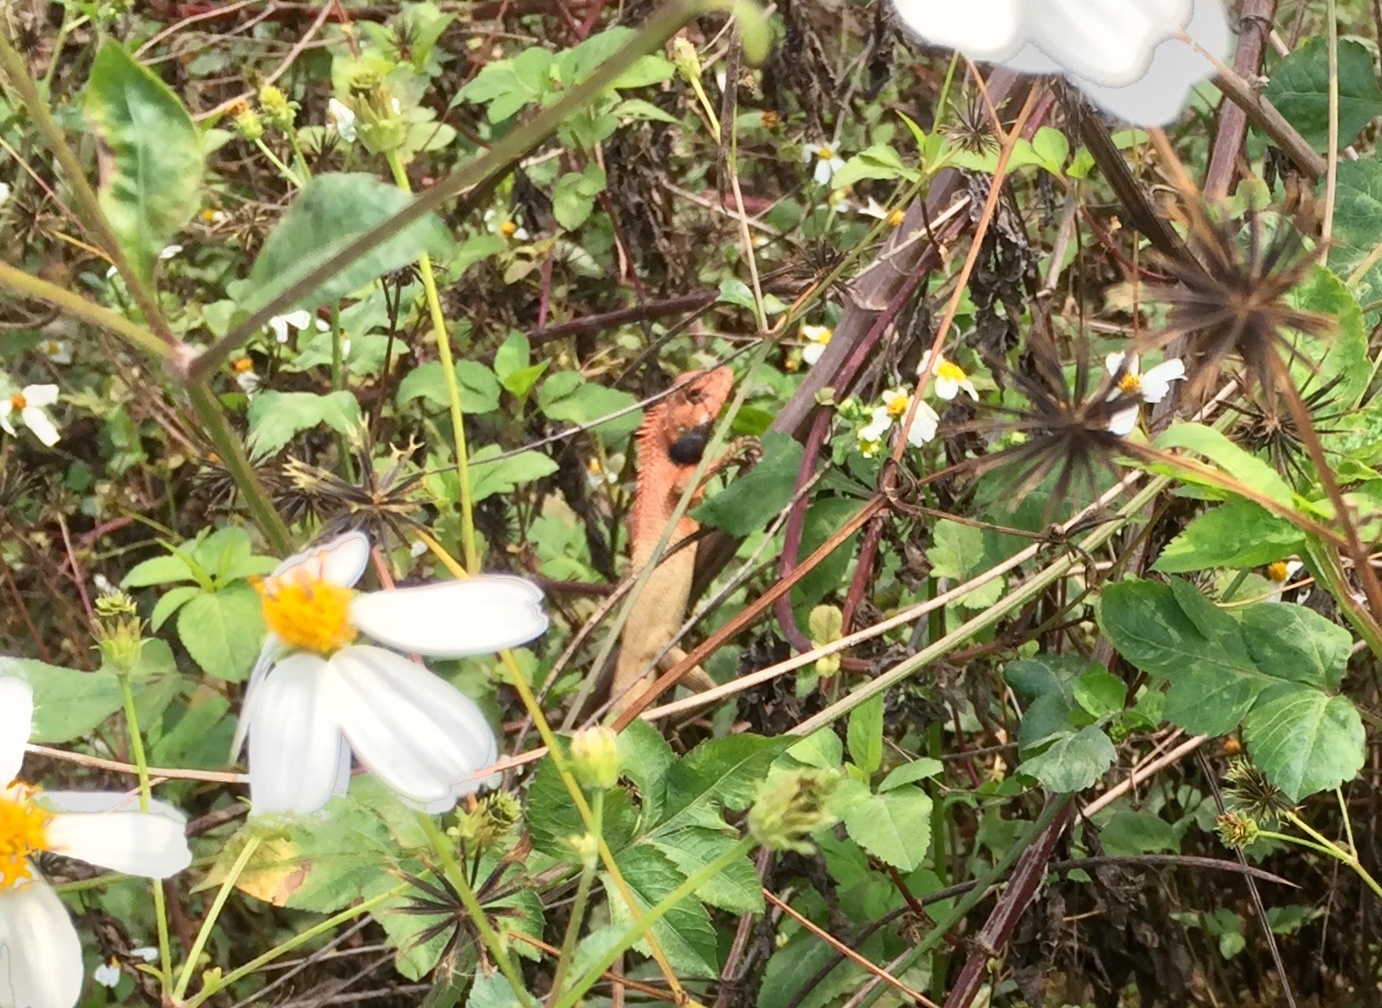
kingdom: Animalia
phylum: Chordata
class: Squamata
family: Agamidae
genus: Calotes
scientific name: Calotes versicolor
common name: Oriental garden lizard
